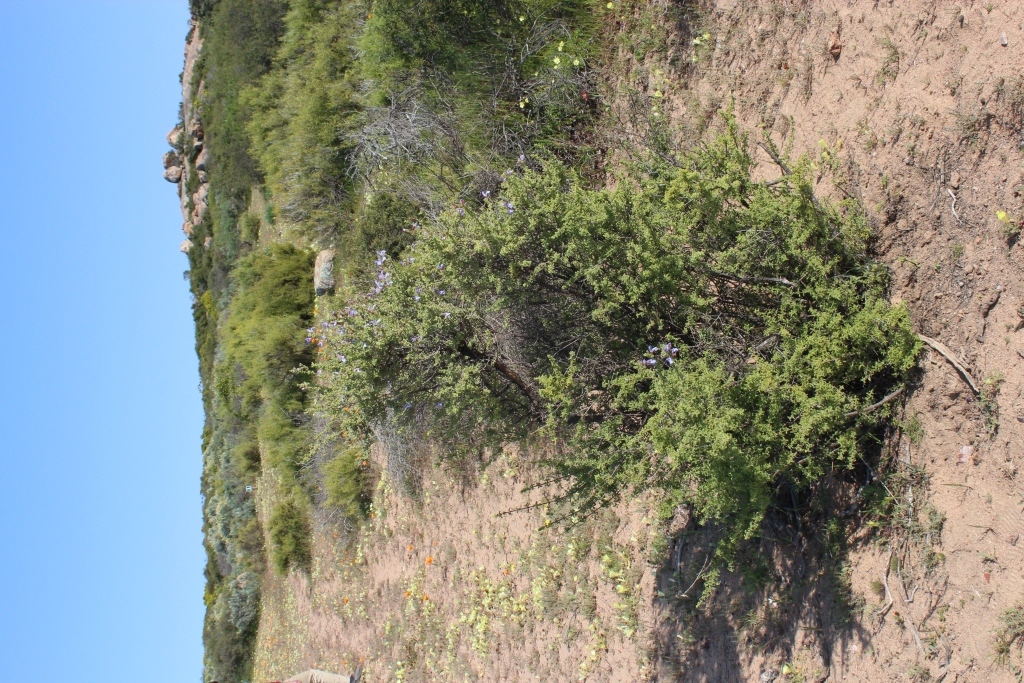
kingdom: Plantae
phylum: Tracheophyta
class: Magnoliopsida
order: Lamiales
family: Lamiaceae
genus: Salvia
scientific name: Salvia dentata
